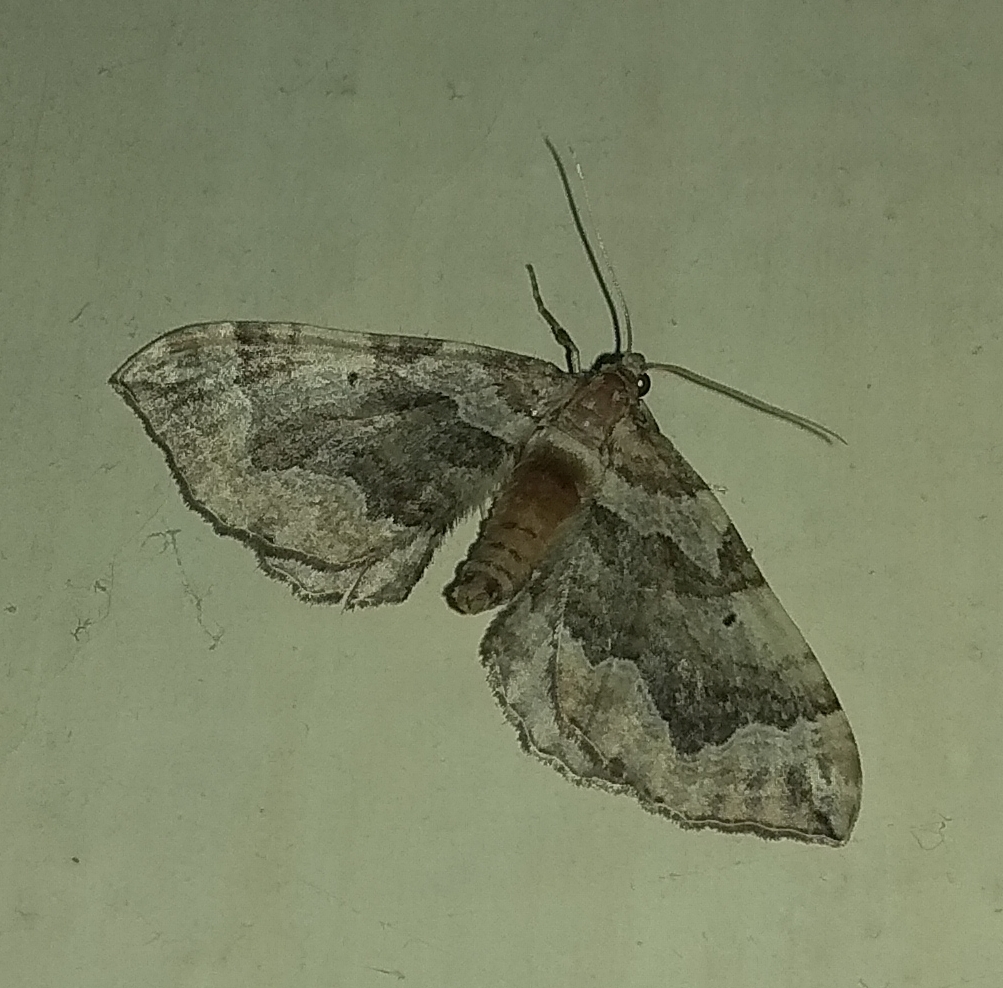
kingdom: Animalia
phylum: Arthropoda
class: Insecta
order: Lepidoptera
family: Geometridae
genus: Pelurga
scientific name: Pelurga comitata
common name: Dark spinach
